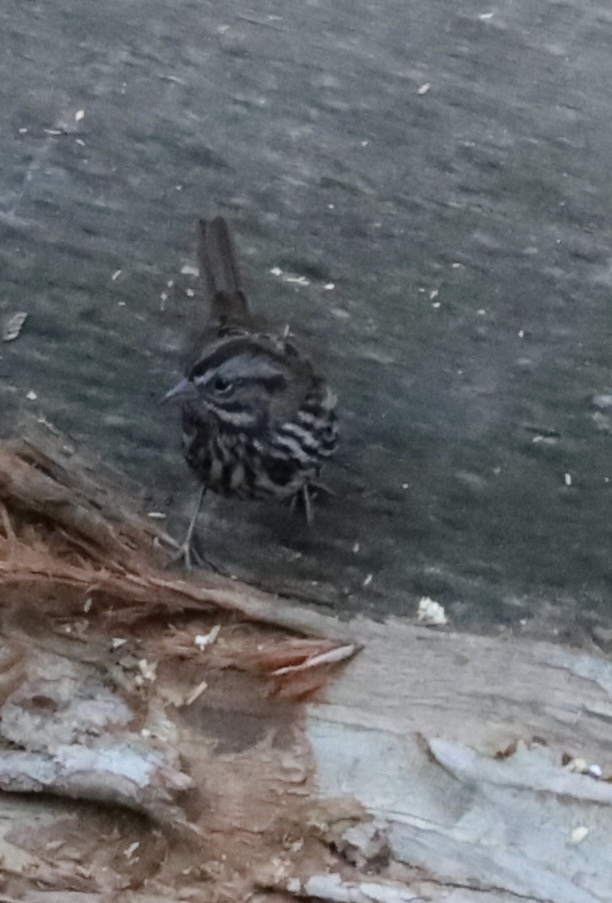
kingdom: Animalia
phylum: Chordata
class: Aves
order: Passeriformes
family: Passerellidae
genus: Melospiza
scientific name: Melospiza melodia
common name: Song sparrow
